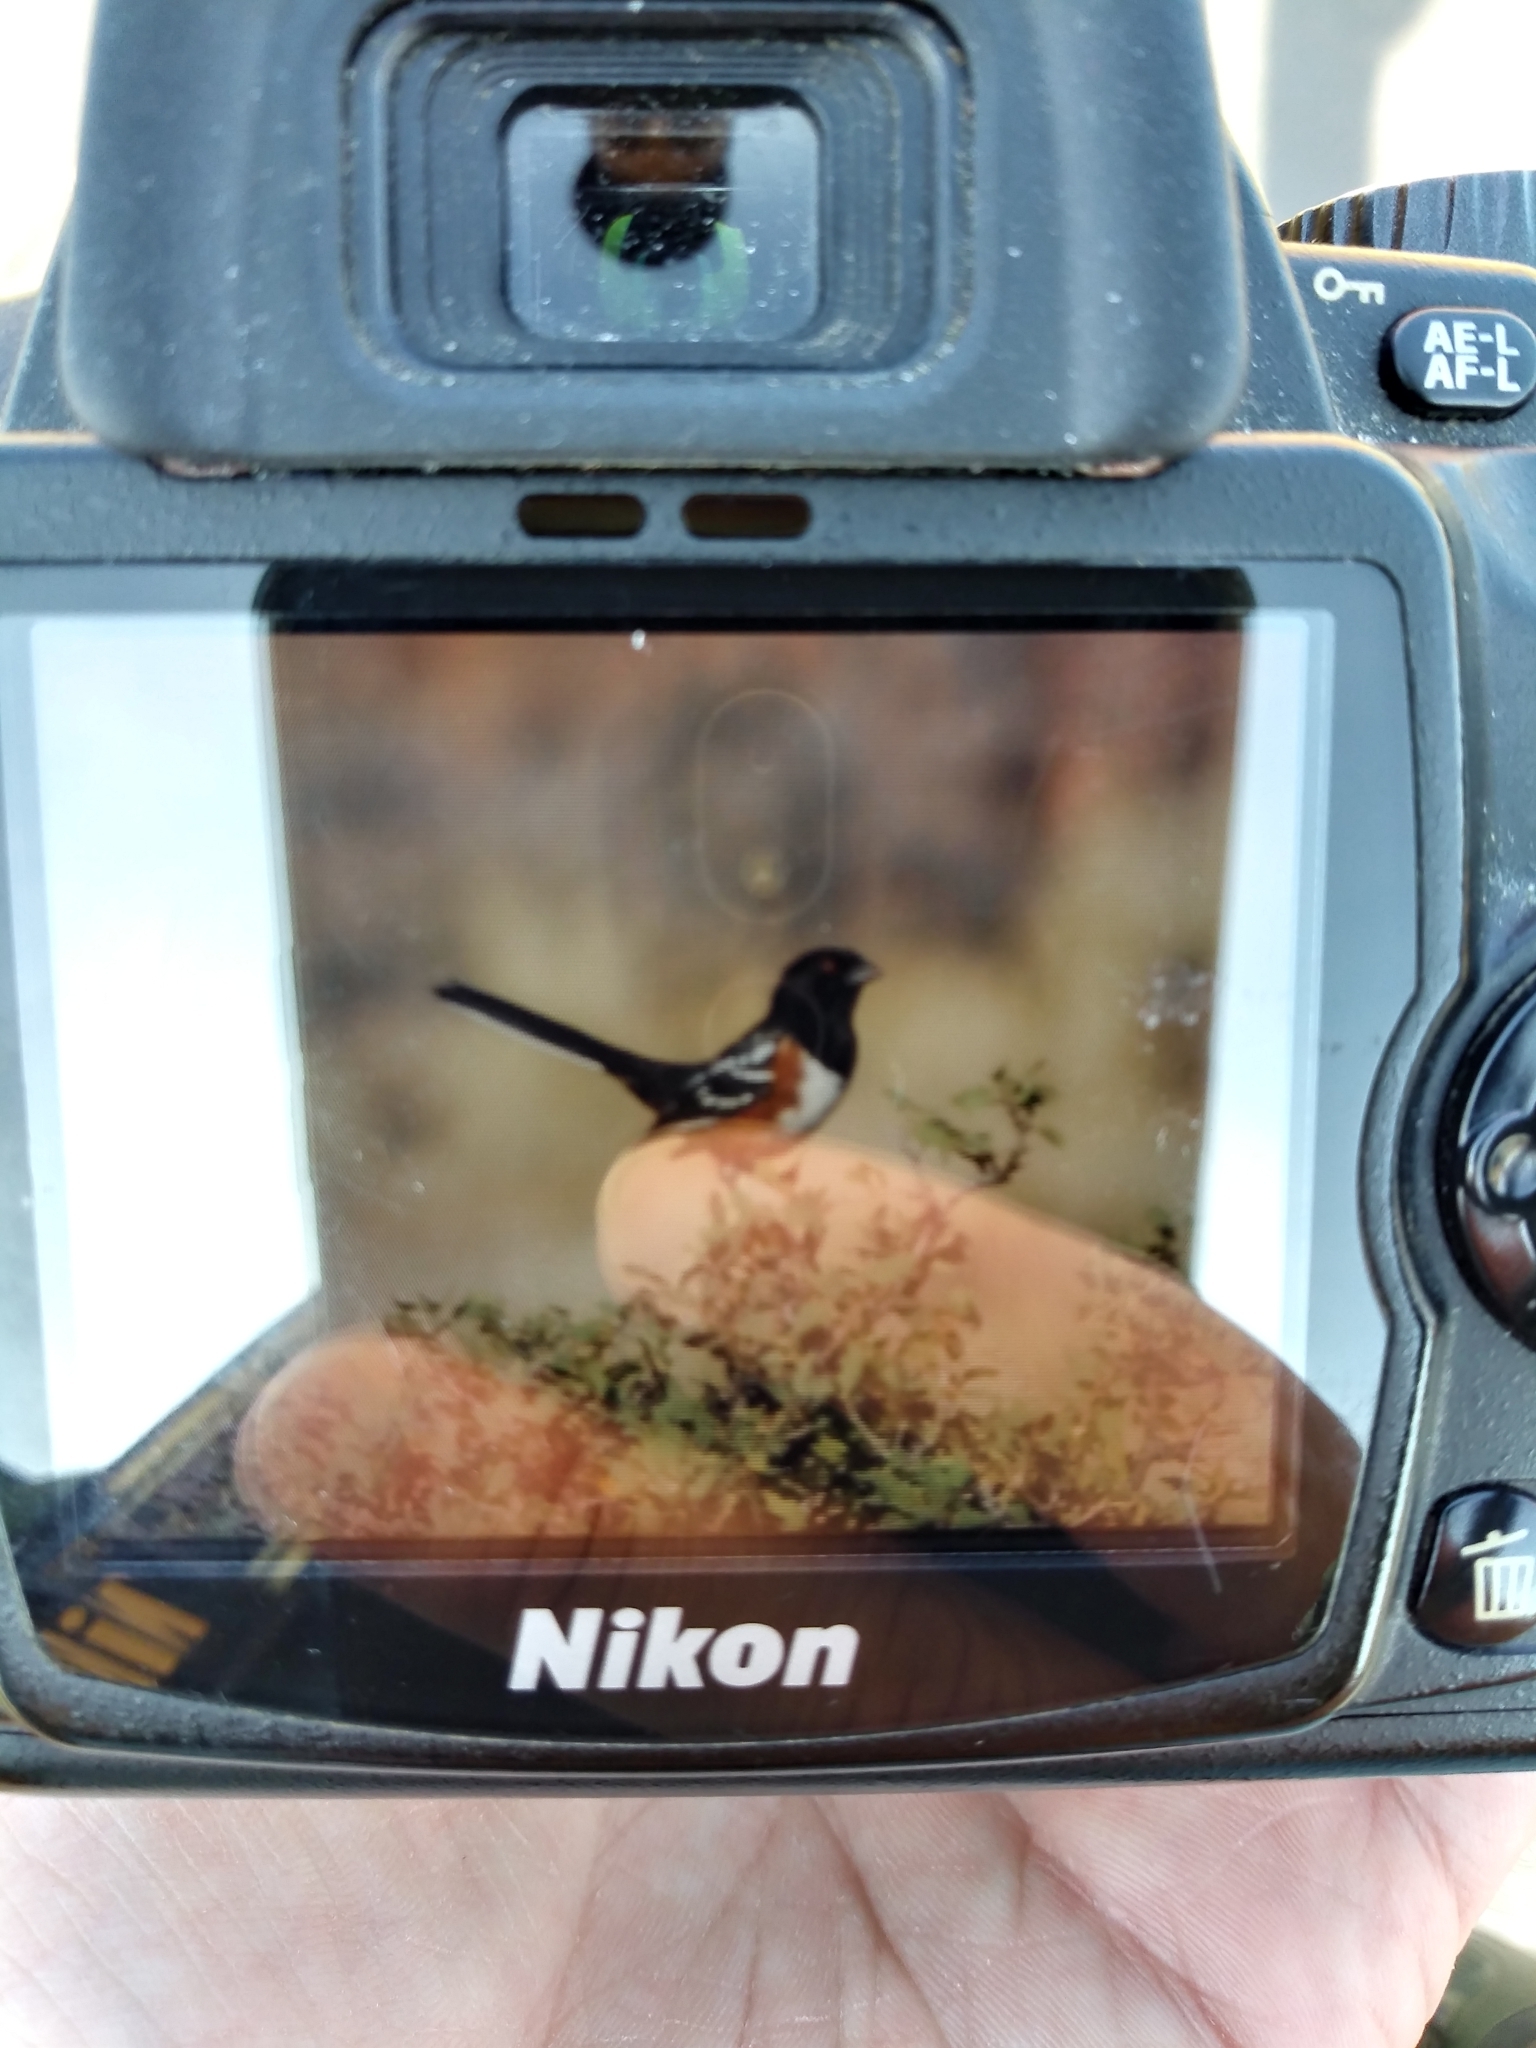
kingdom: Animalia
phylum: Chordata
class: Aves
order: Passeriformes
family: Passerellidae
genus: Pipilo
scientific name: Pipilo maculatus
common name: Spotted towhee
